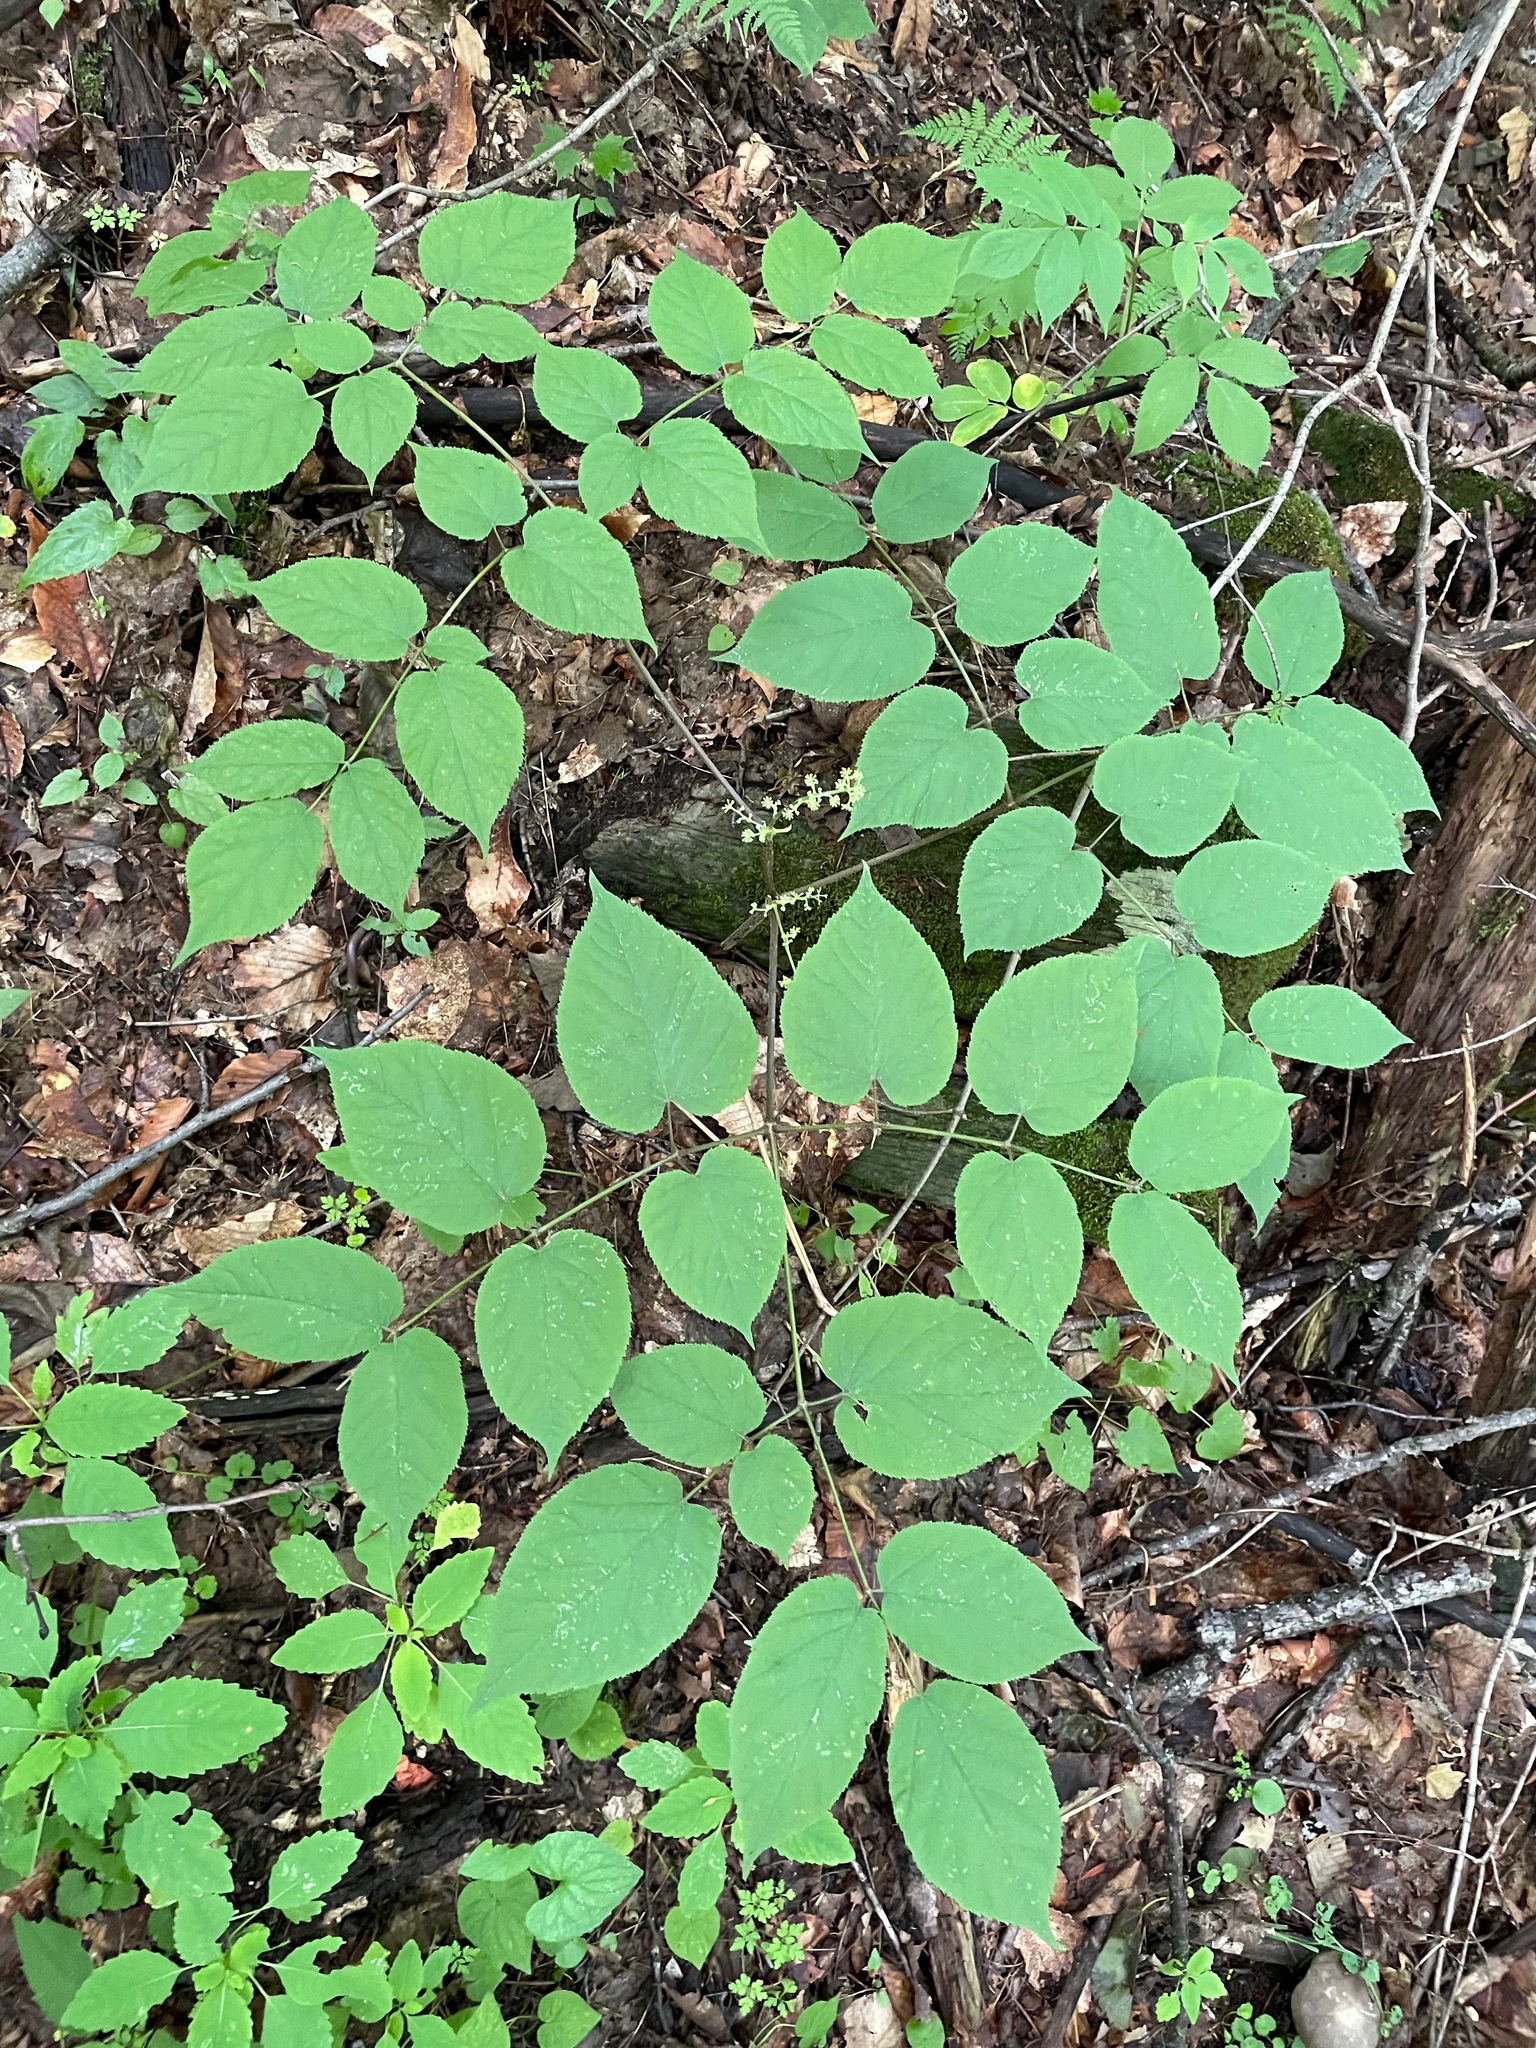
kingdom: Plantae
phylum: Tracheophyta
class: Magnoliopsida
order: Apiales
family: Araliaceae
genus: Aralia
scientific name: Aralia racemosa
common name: American-spikenard
